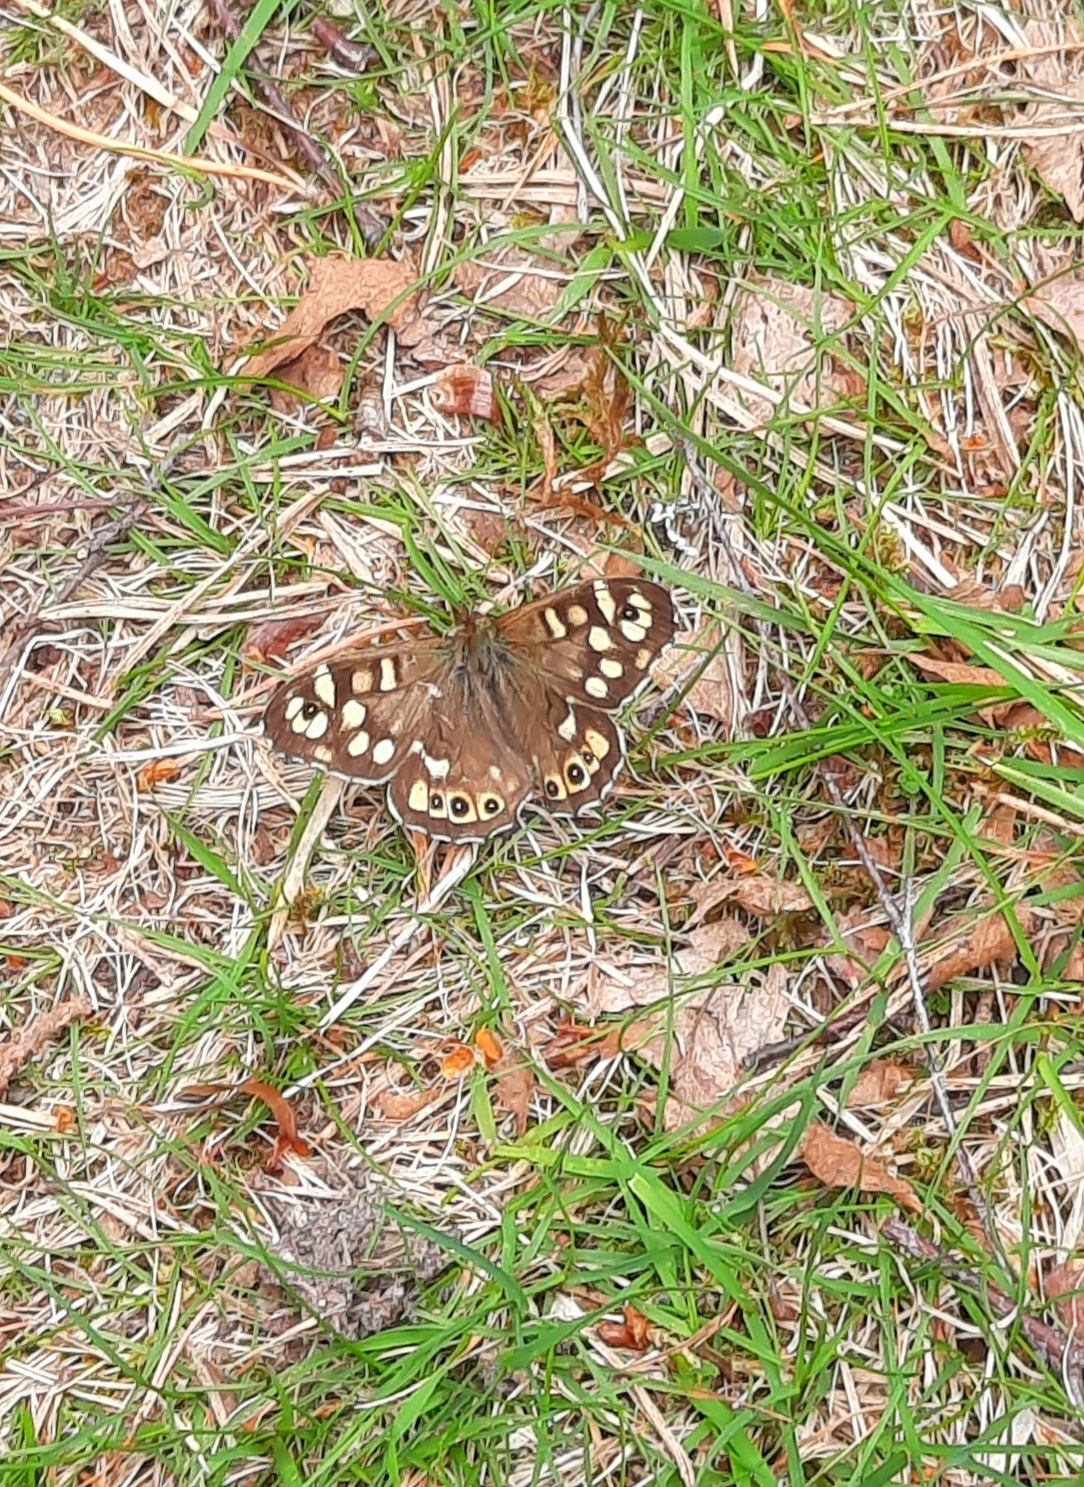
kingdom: Animalia
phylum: Arthropoda
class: Insecta
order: Lepidoptera
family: Nymphalidae
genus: Pararge
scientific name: Pararge aegeria
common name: Speckled wood
